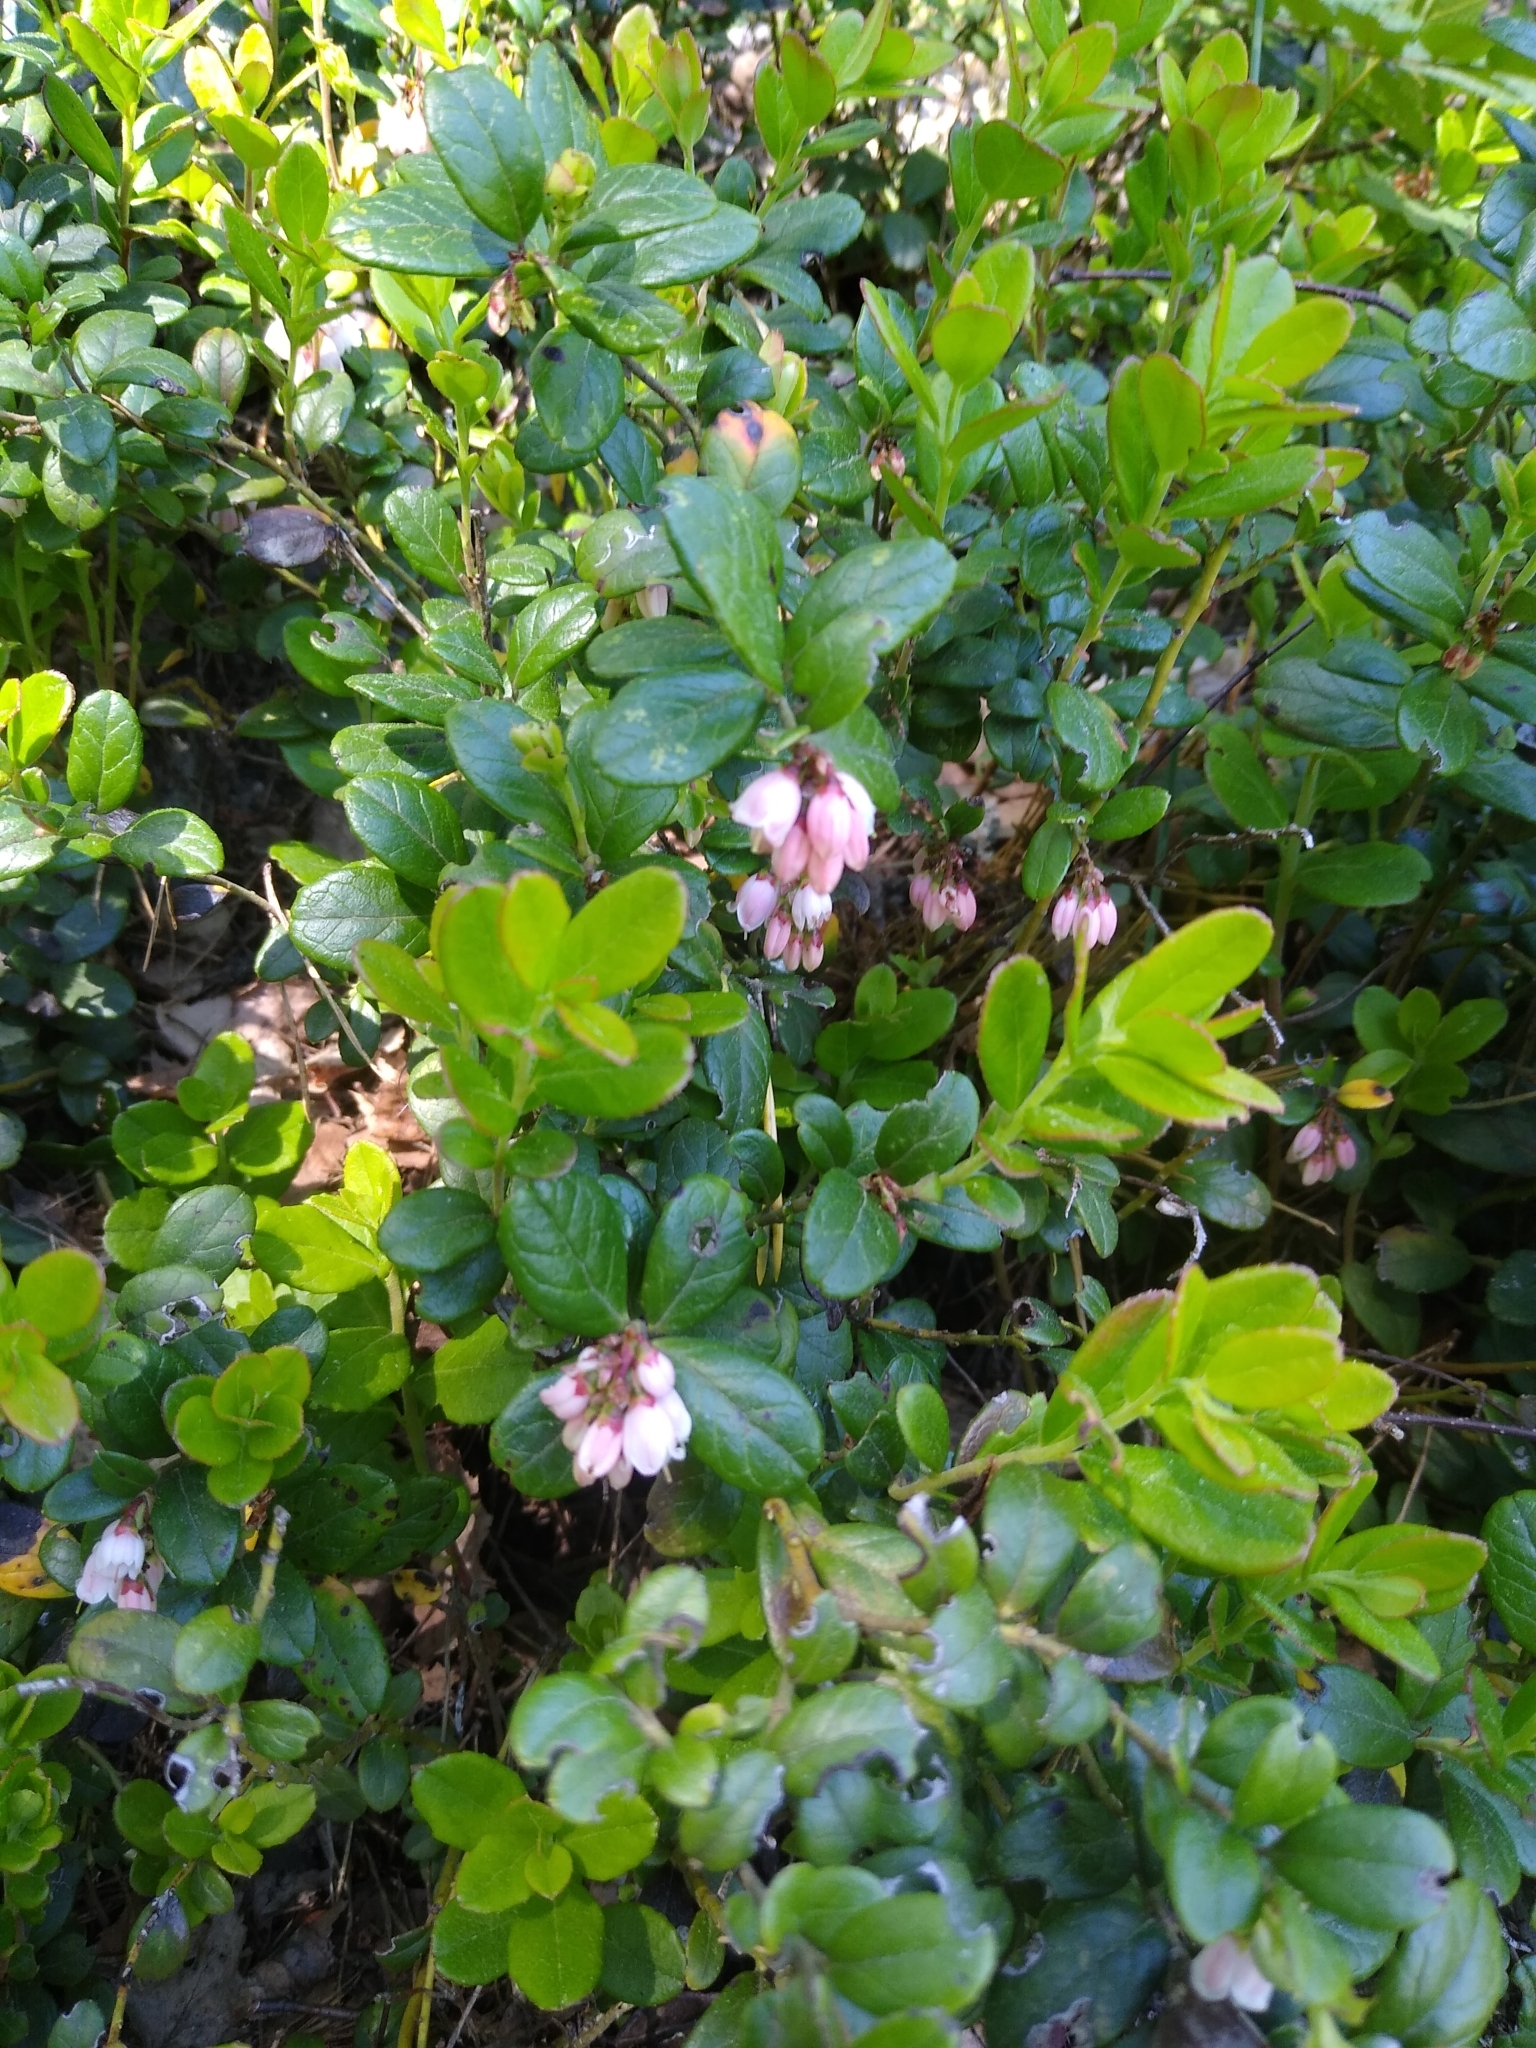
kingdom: Plantae
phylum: Tracheophyta
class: Magnoliopsida
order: Ericales
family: Ericaceae
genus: Vaccinium
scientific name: Vaccinium vitis-idaea
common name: Cowberry
